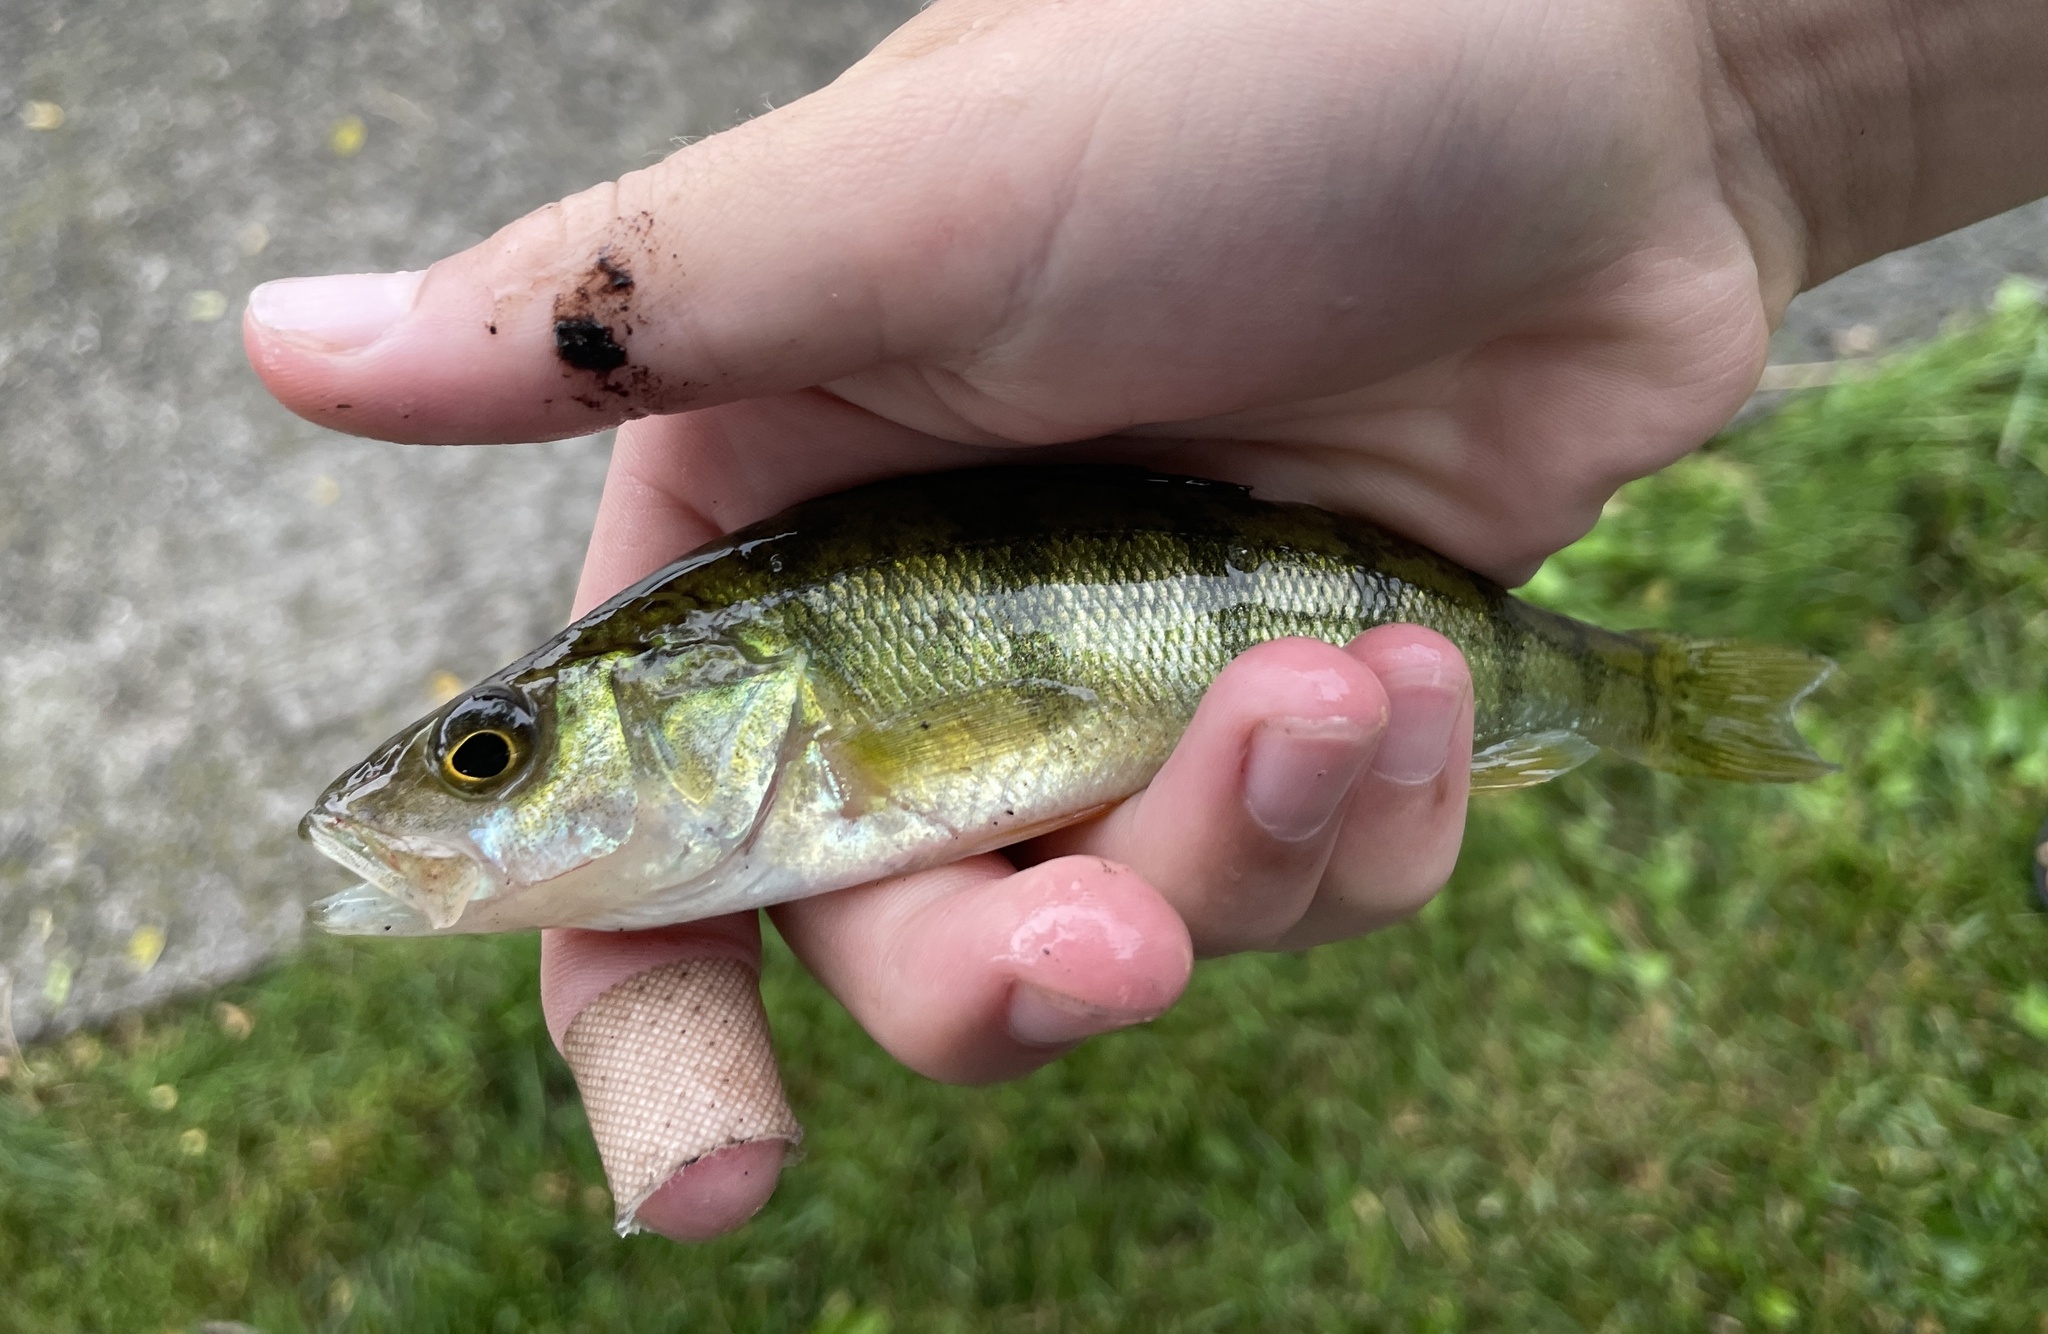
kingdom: Animalia
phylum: Chordata
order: Perciformes
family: Percidae
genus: Perca
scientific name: Perca flavescens
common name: Yellow perch
